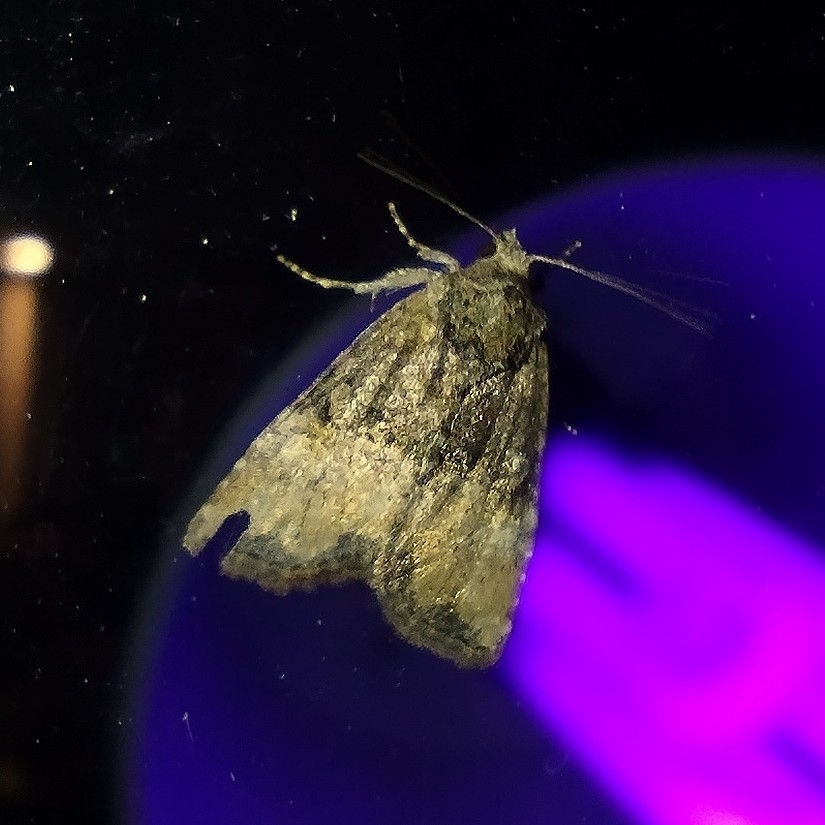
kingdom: Animalia
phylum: Arthropoda
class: Insecta
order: Lepidoptera
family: Noctuidae
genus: Mesoligia
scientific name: Mesoligia furuncula
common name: Cloaked minor
